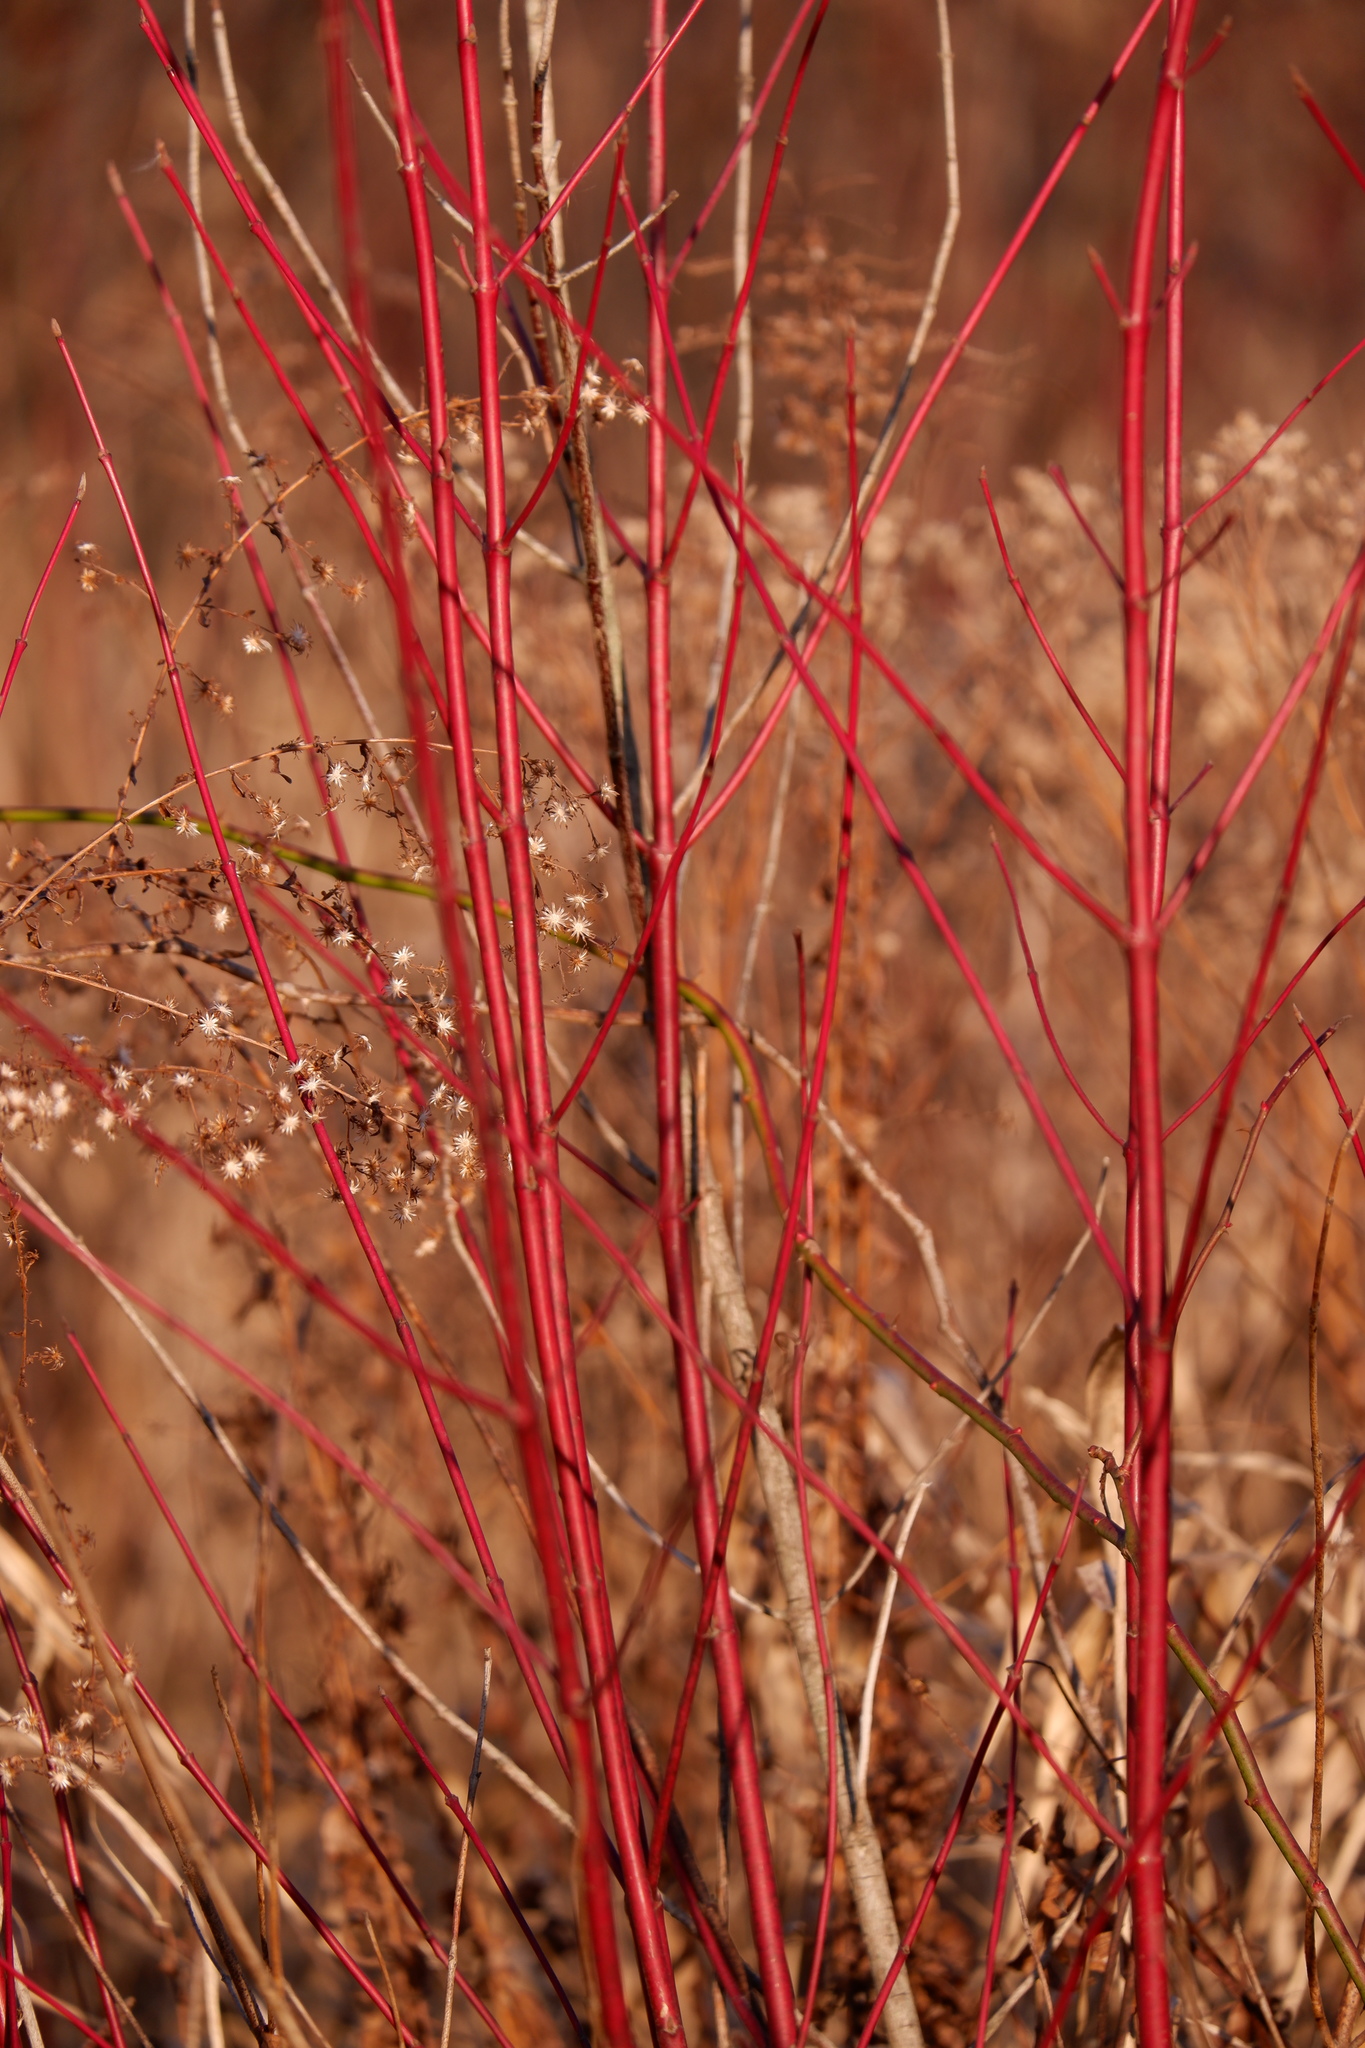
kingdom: Plantae
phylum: Tracheophyta
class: Magnoliopsida
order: Cornales
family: Cornaceae
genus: Cornus
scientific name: Cornus sericea
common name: Red-osier dogwood
